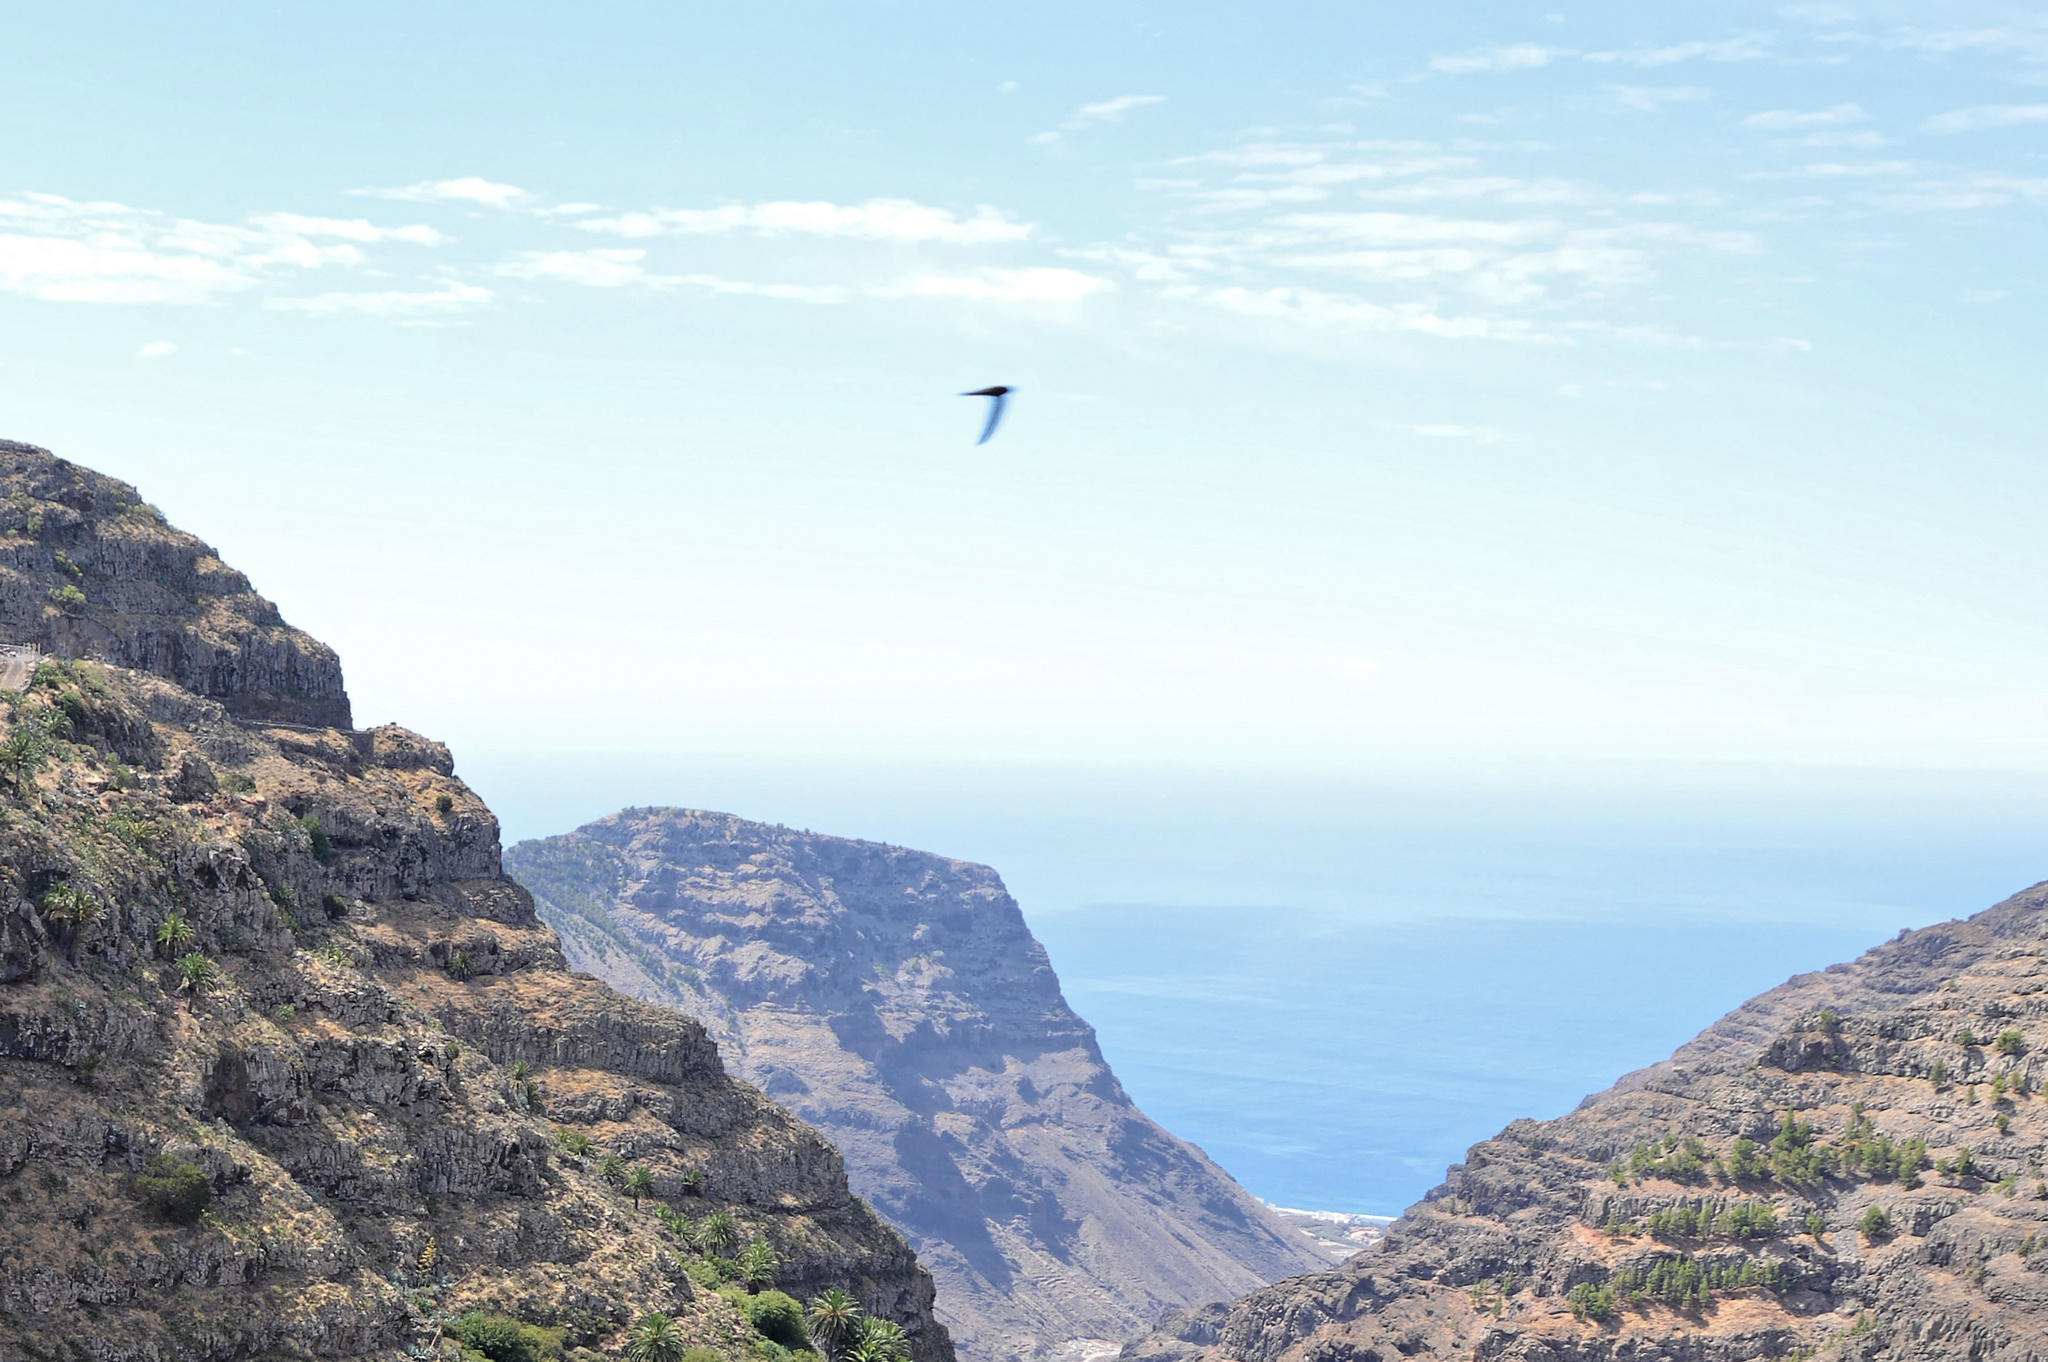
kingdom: Animalia
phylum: Chordata
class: Aves
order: Apodiformes
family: Apodidae
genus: Apus
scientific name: Apus unicolor
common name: Plain swift
